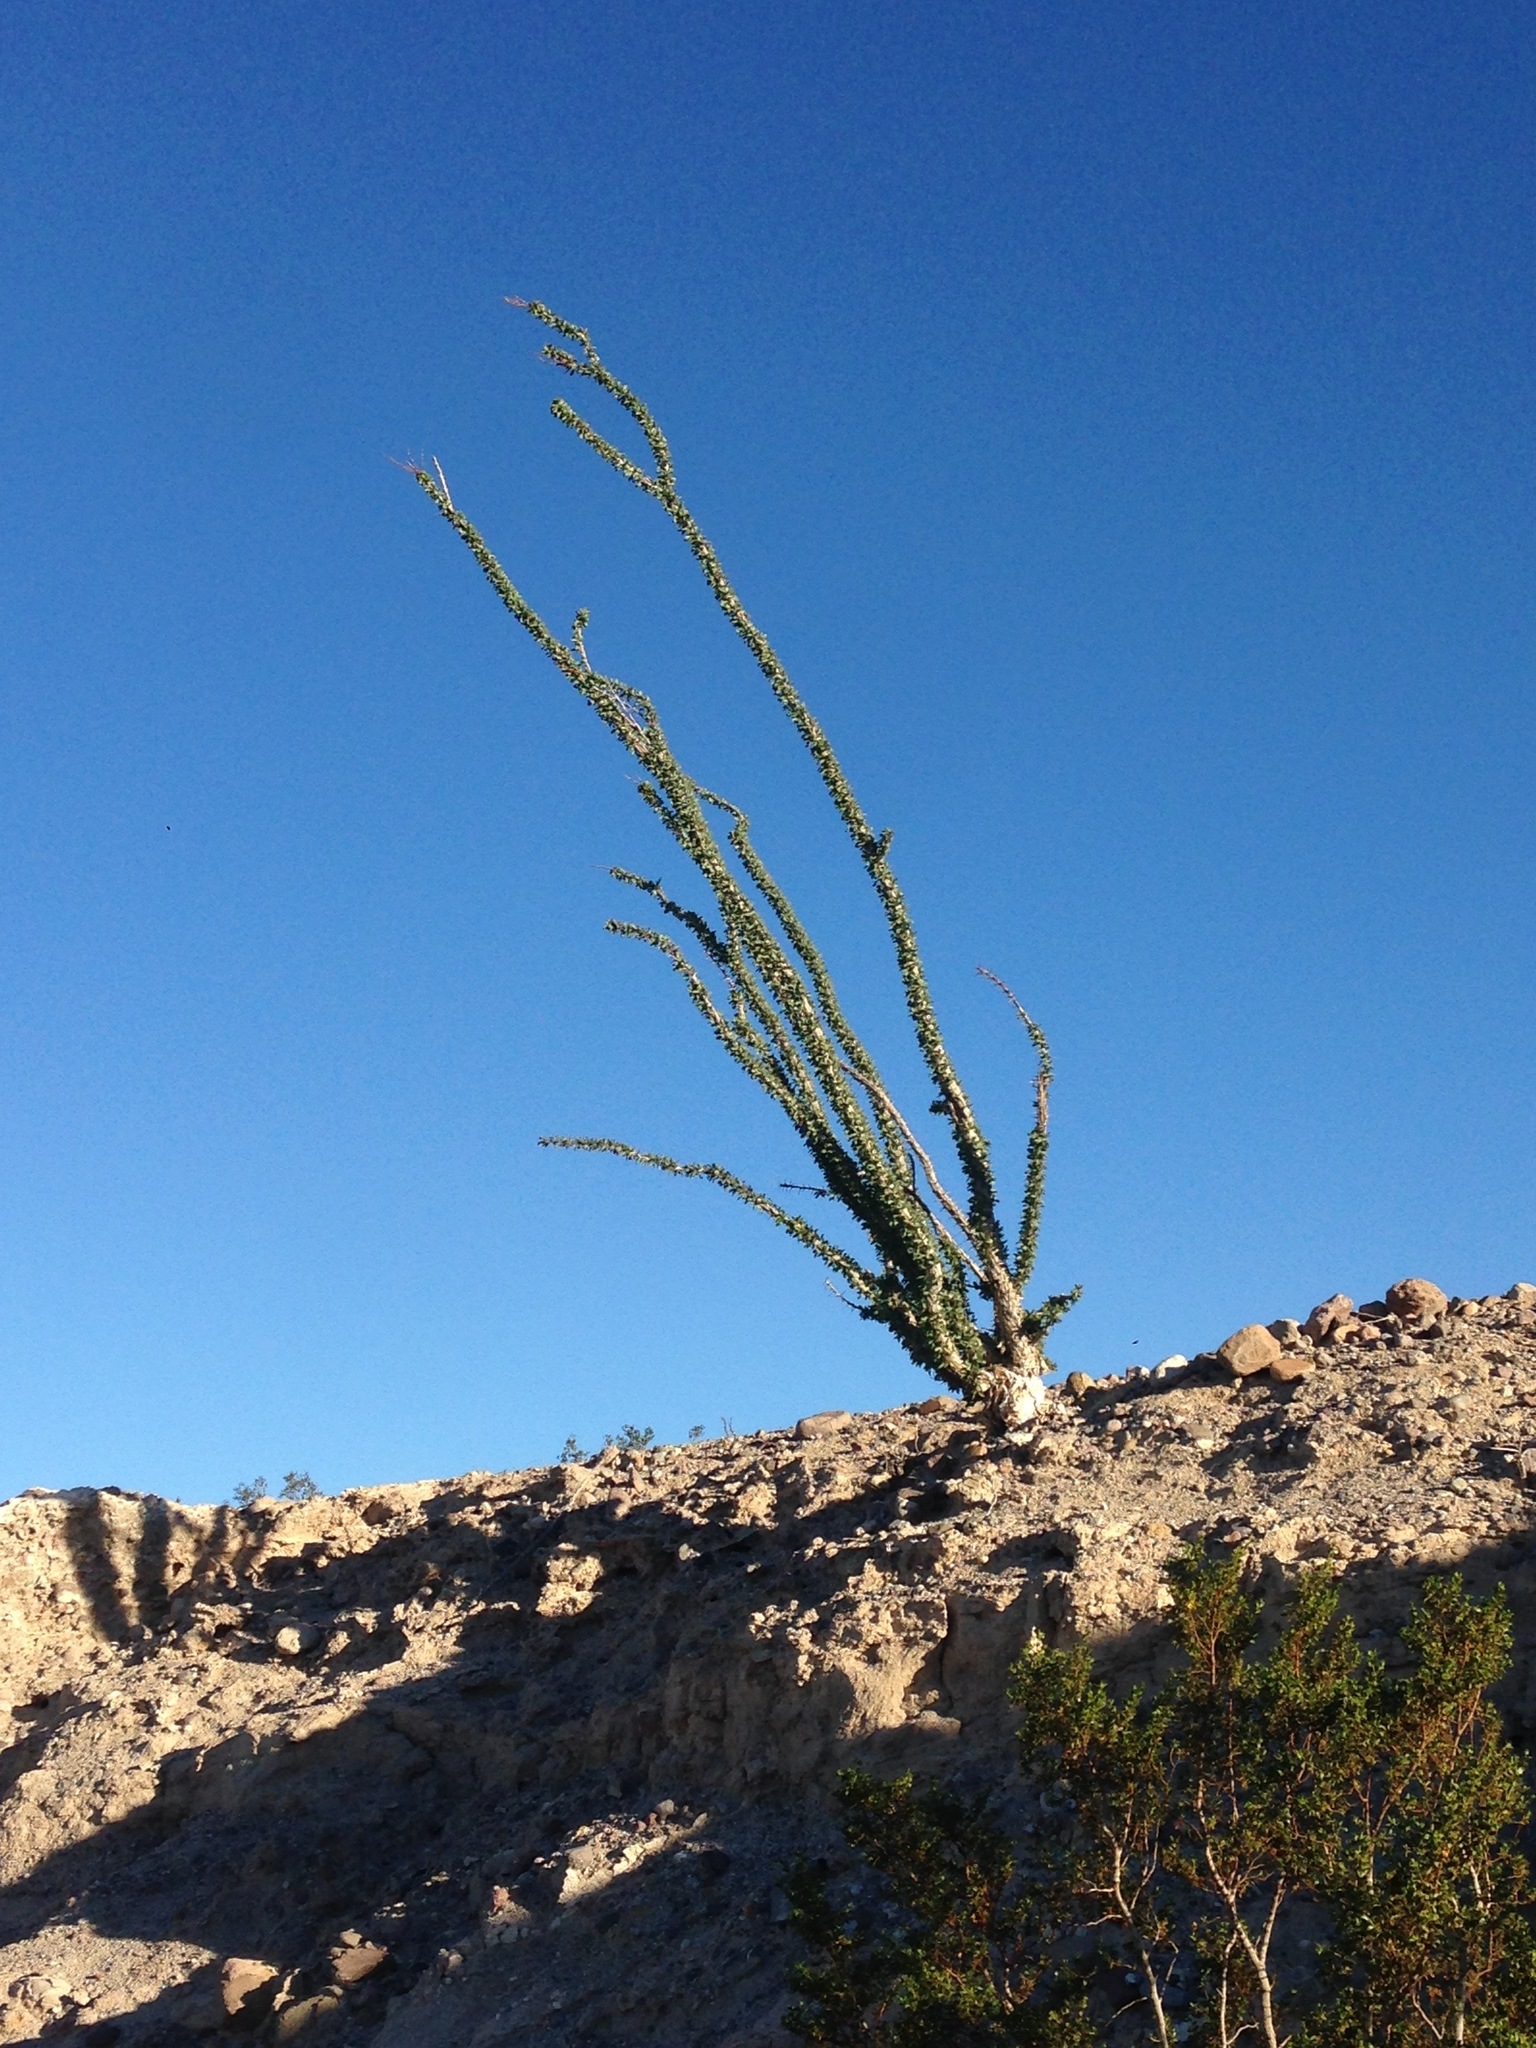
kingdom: Plantae
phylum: Tracheophyta
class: Magnoliopsida
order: Ericales
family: Fouquieriaceae
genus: Fouquieria
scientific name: Fouquieria splendens
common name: Vine-cactus
